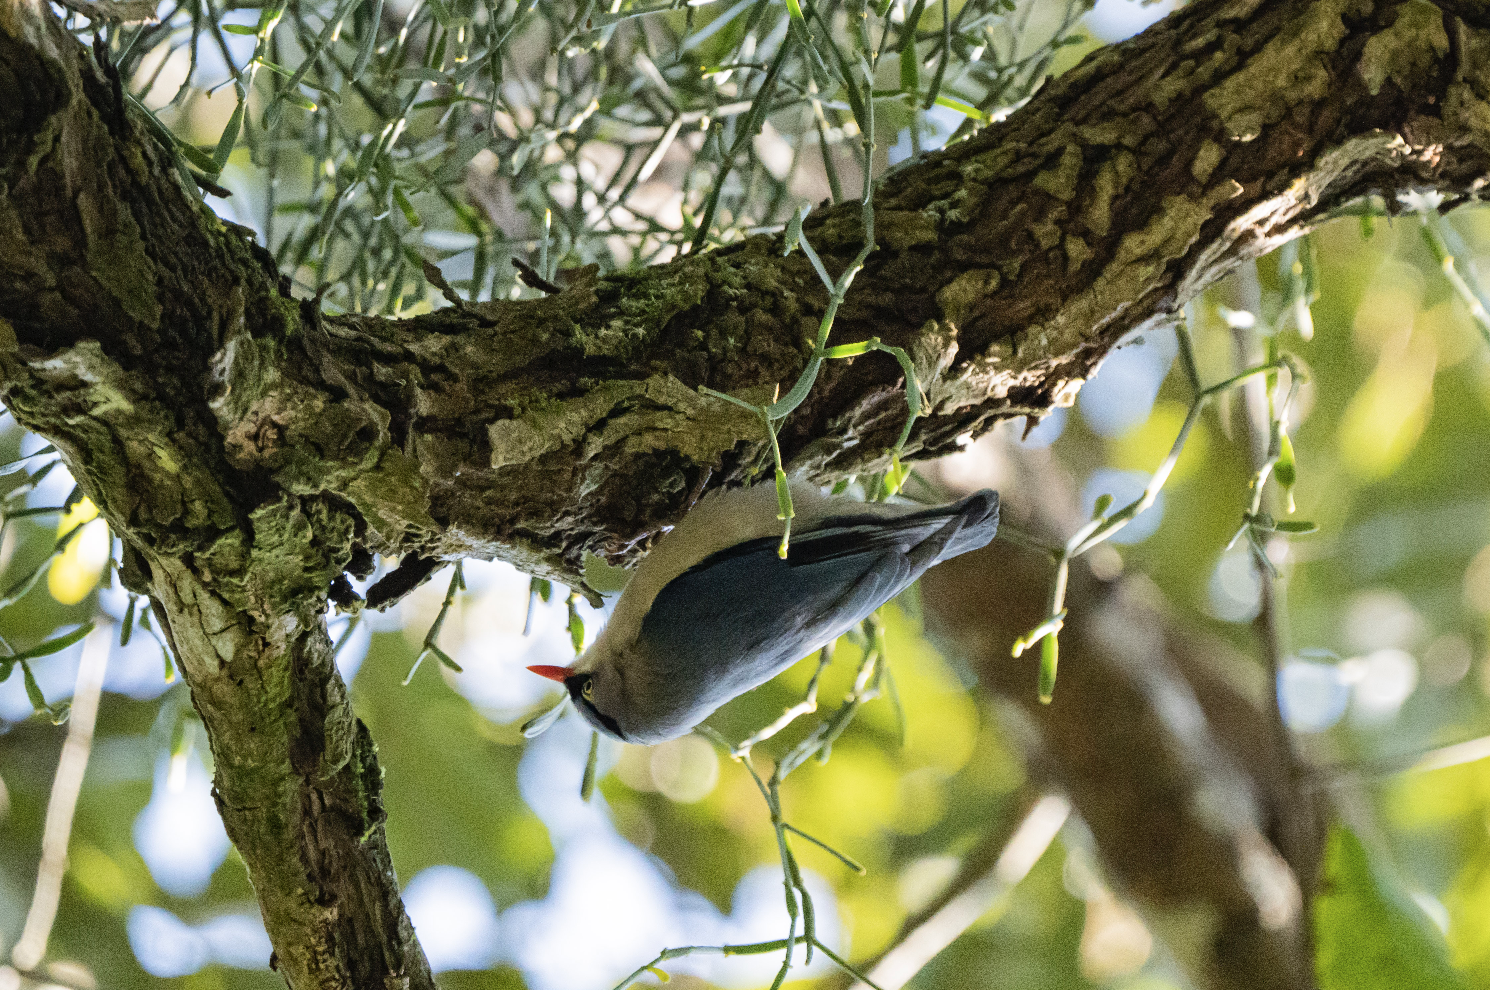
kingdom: Animalia
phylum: Chordata
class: Aves
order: Passeriformes
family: Sittidae
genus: Sitta
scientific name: Sitta frontalis
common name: Velvet-fronted nuthatch
